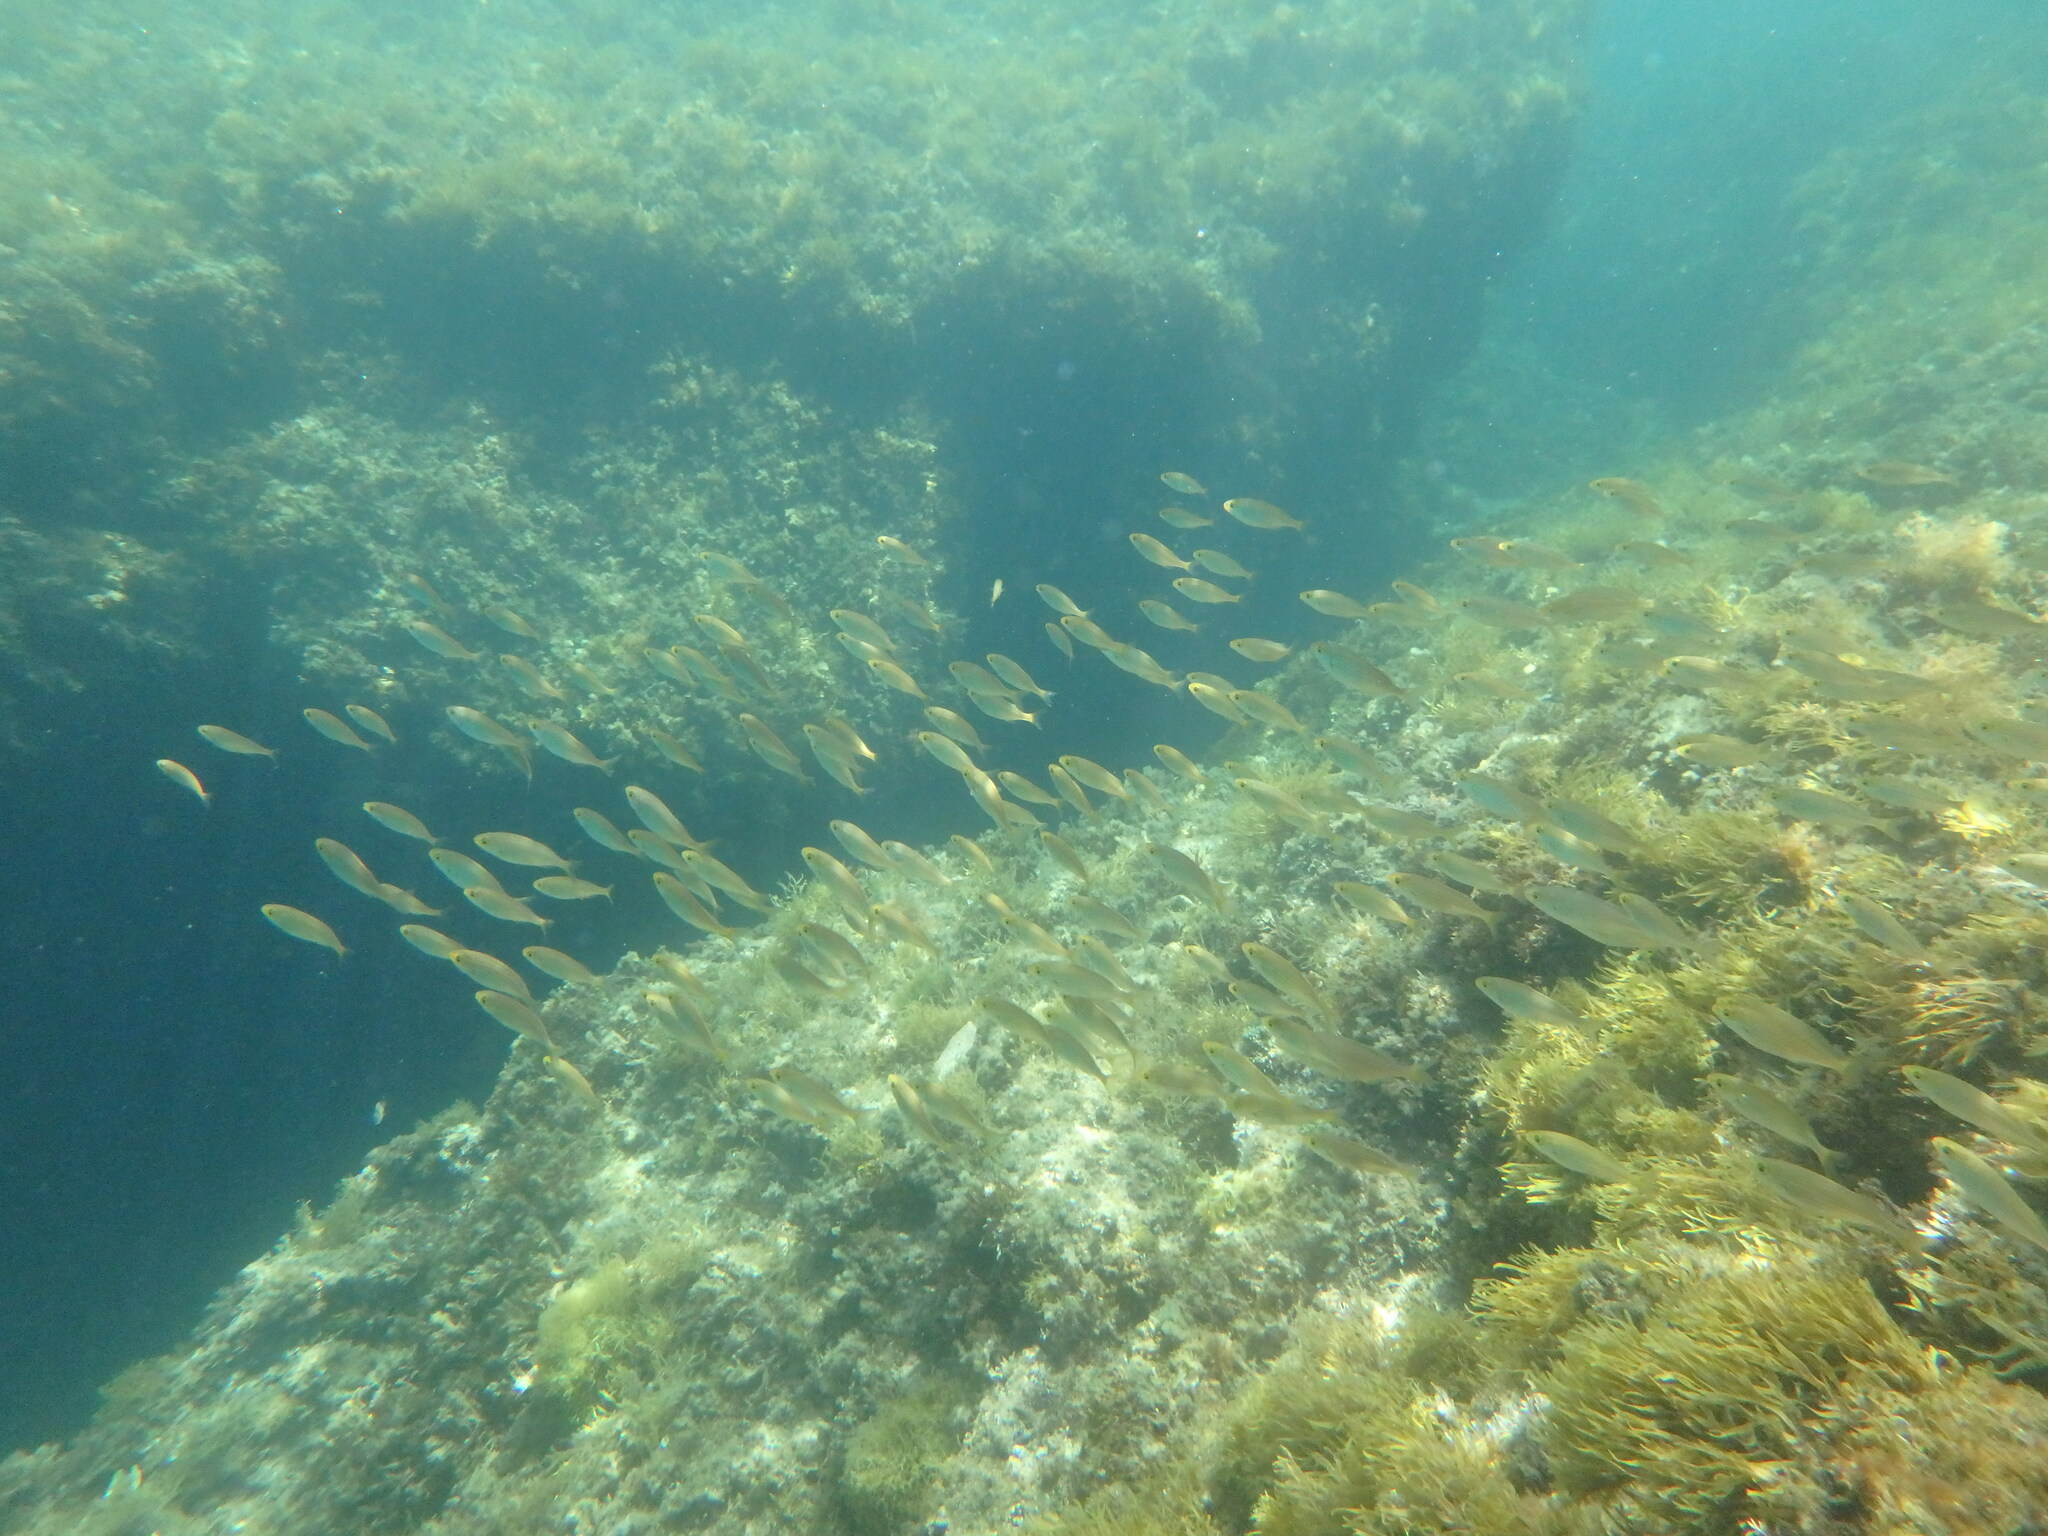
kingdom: Animalia
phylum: Chordata
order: Perciformes
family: Sparidae
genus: Sarpa
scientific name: Sarpa salpa
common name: Salema
